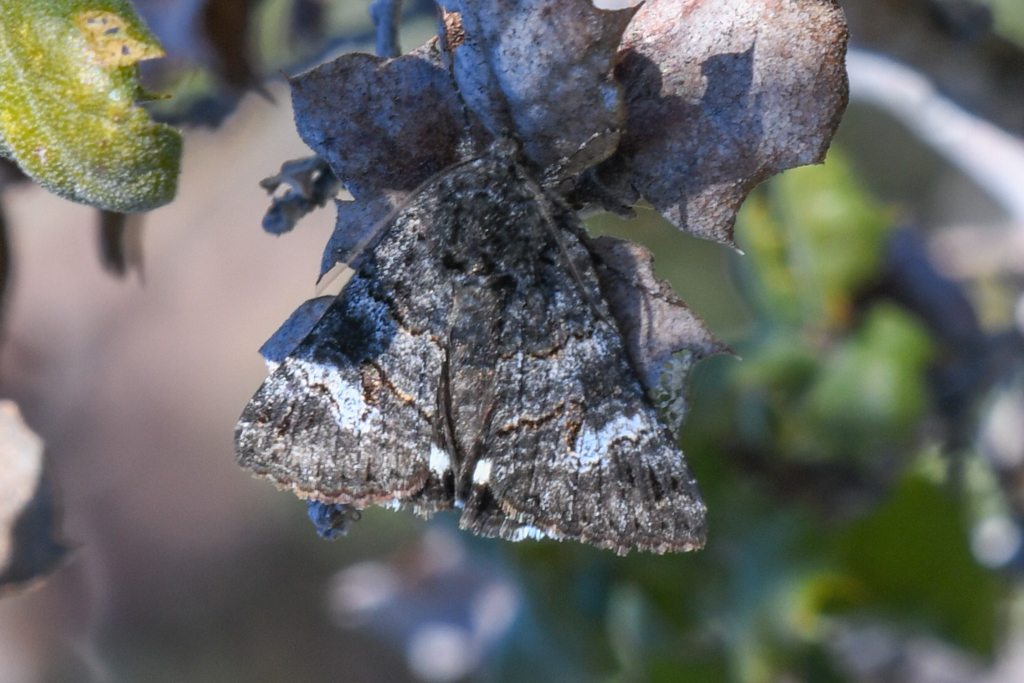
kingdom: Animalia
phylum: Arthropoda
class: Insecta
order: Lepidoptera
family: Erebidae
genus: Litocala
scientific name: Litocala sexsignata
